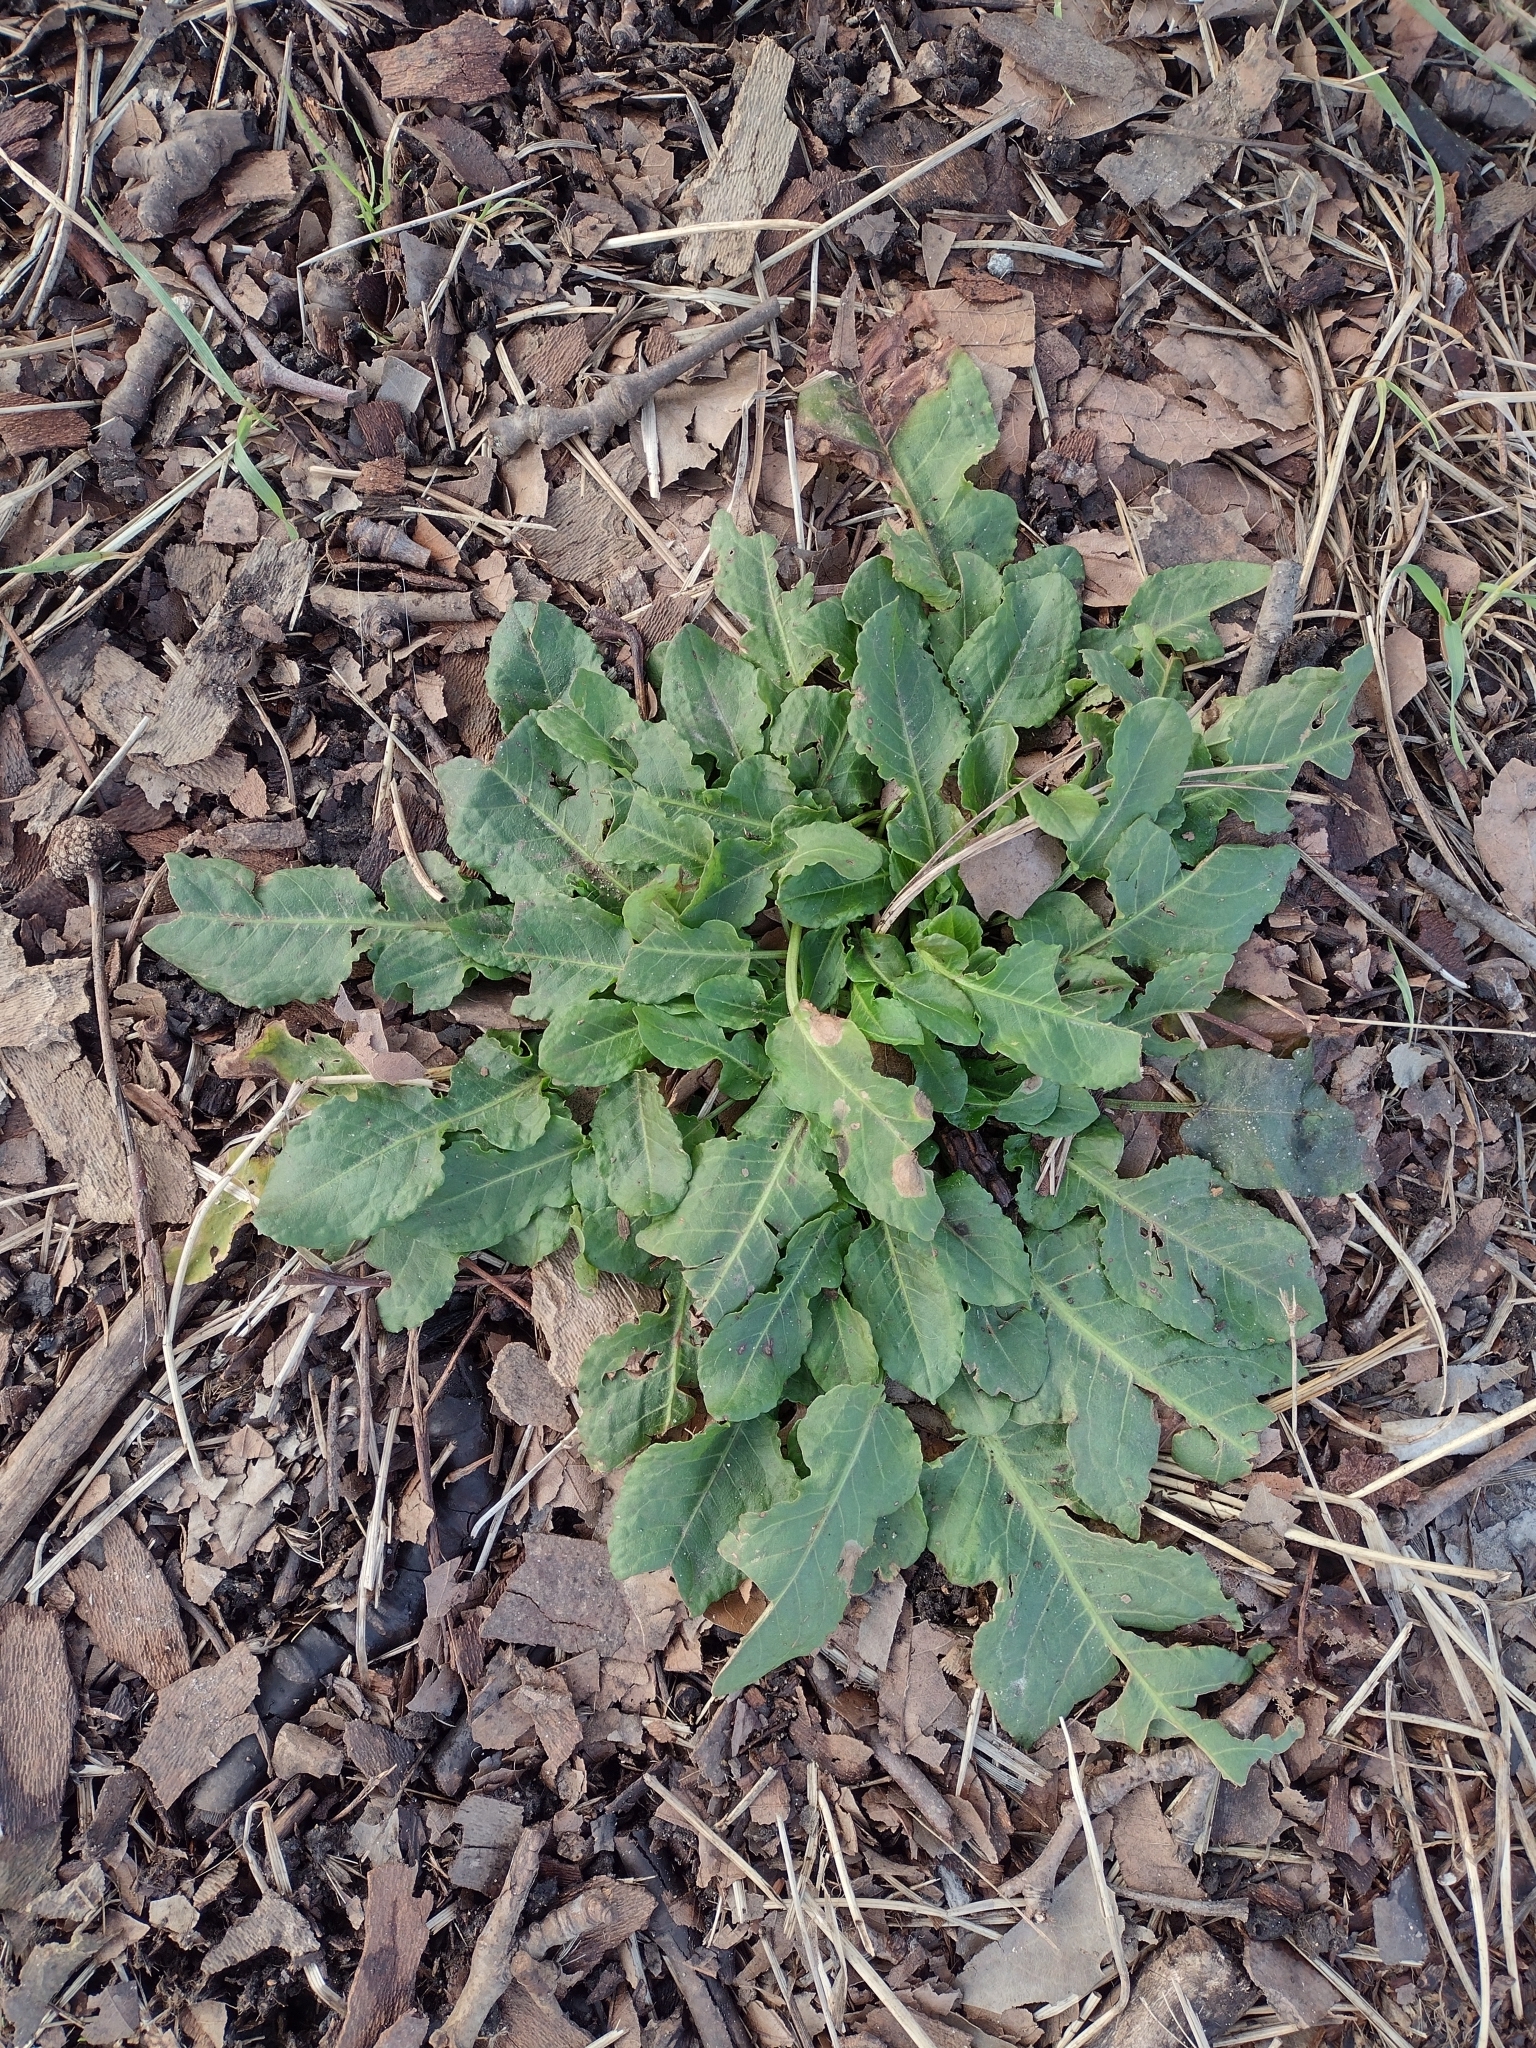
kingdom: Plantae
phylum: Tracheophyta
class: Magnoliopsida
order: Caryophyllales
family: Polygonaceae
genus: Rumex
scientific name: Rumex pulcher
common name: Fiddle dock
